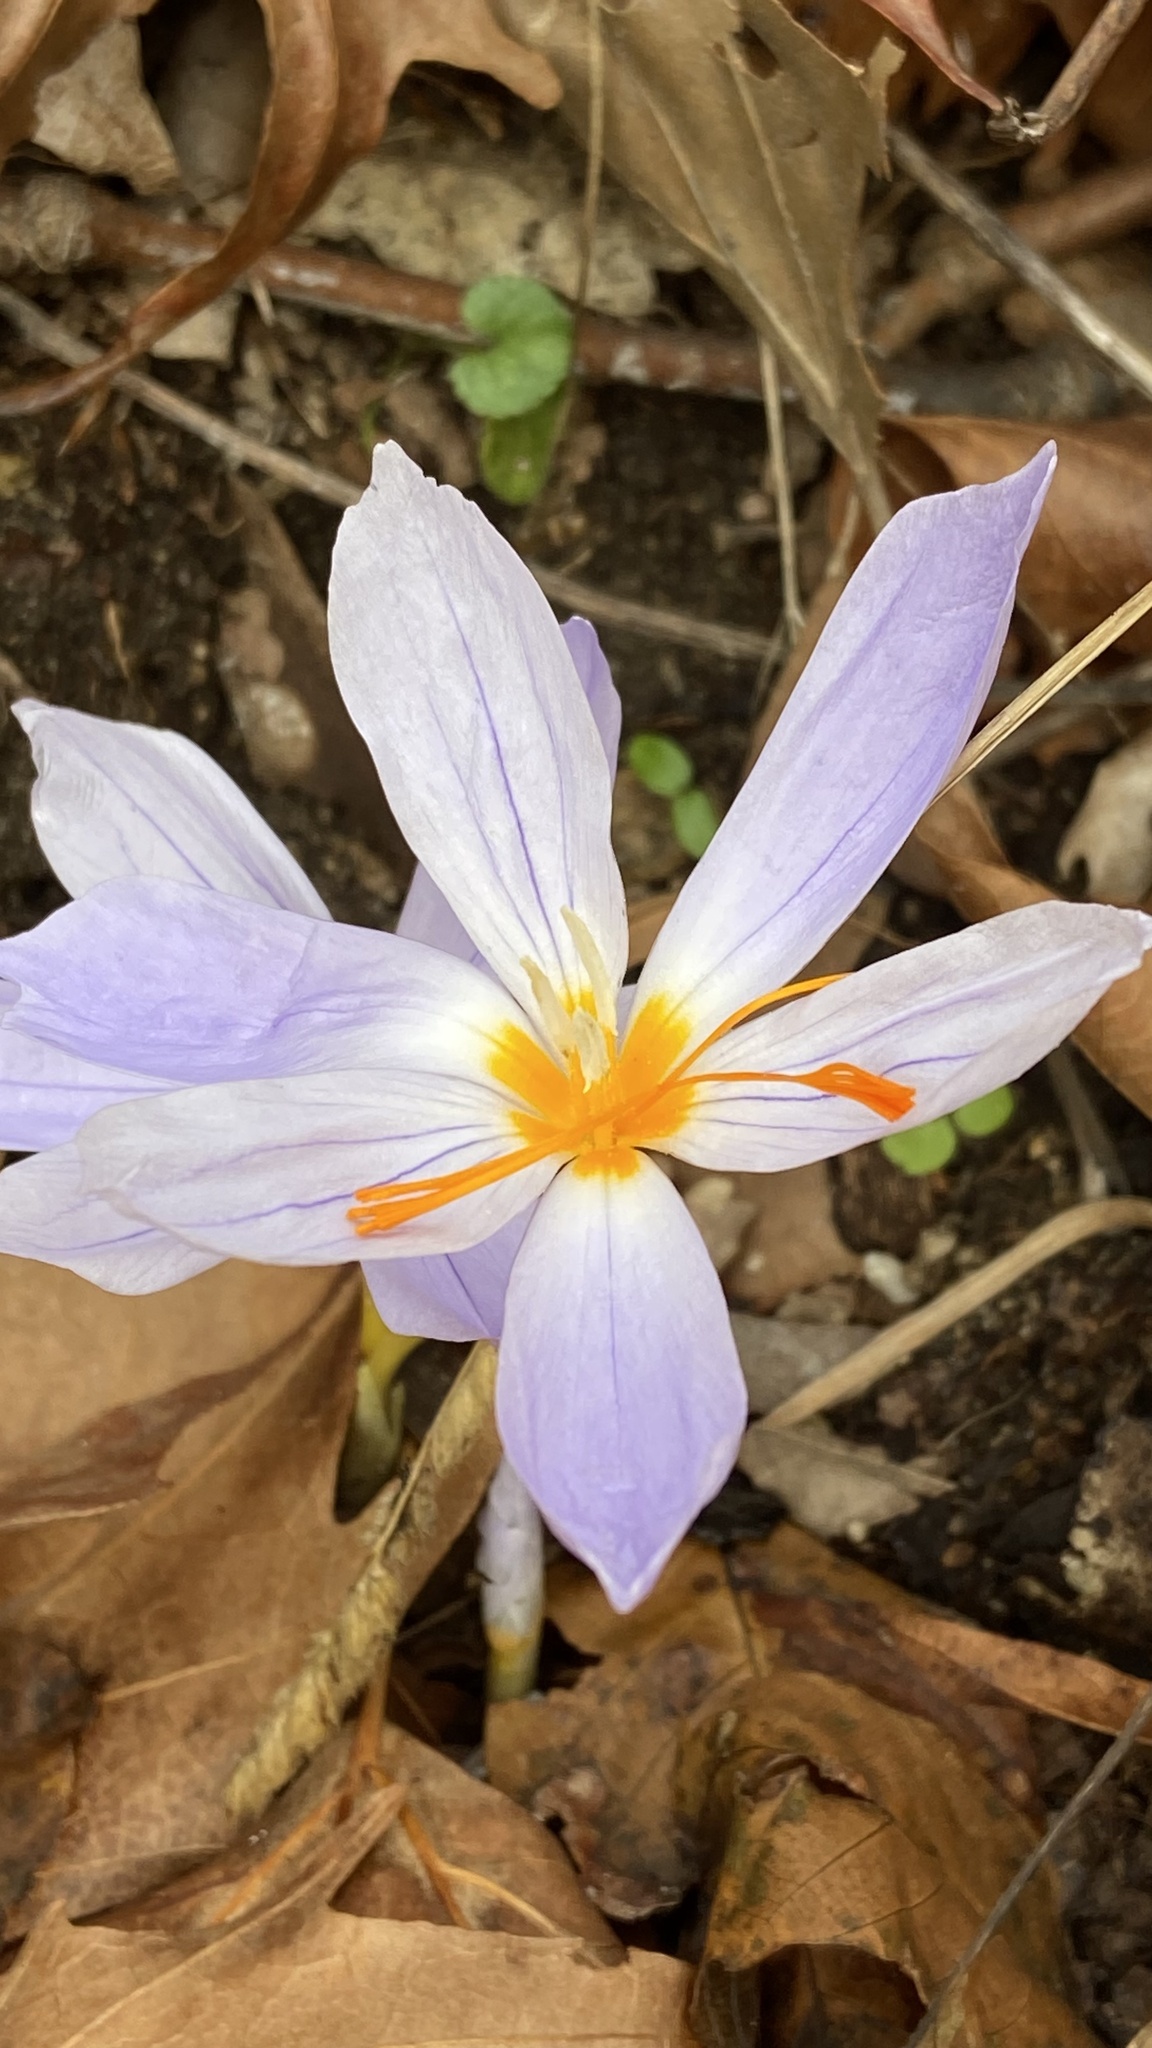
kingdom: Plantae
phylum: Tracheophyta
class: Liliopsida
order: Asparagales
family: Iridaceae
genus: Crocus
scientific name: Crocus pulchellus
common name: Hairy crocus
